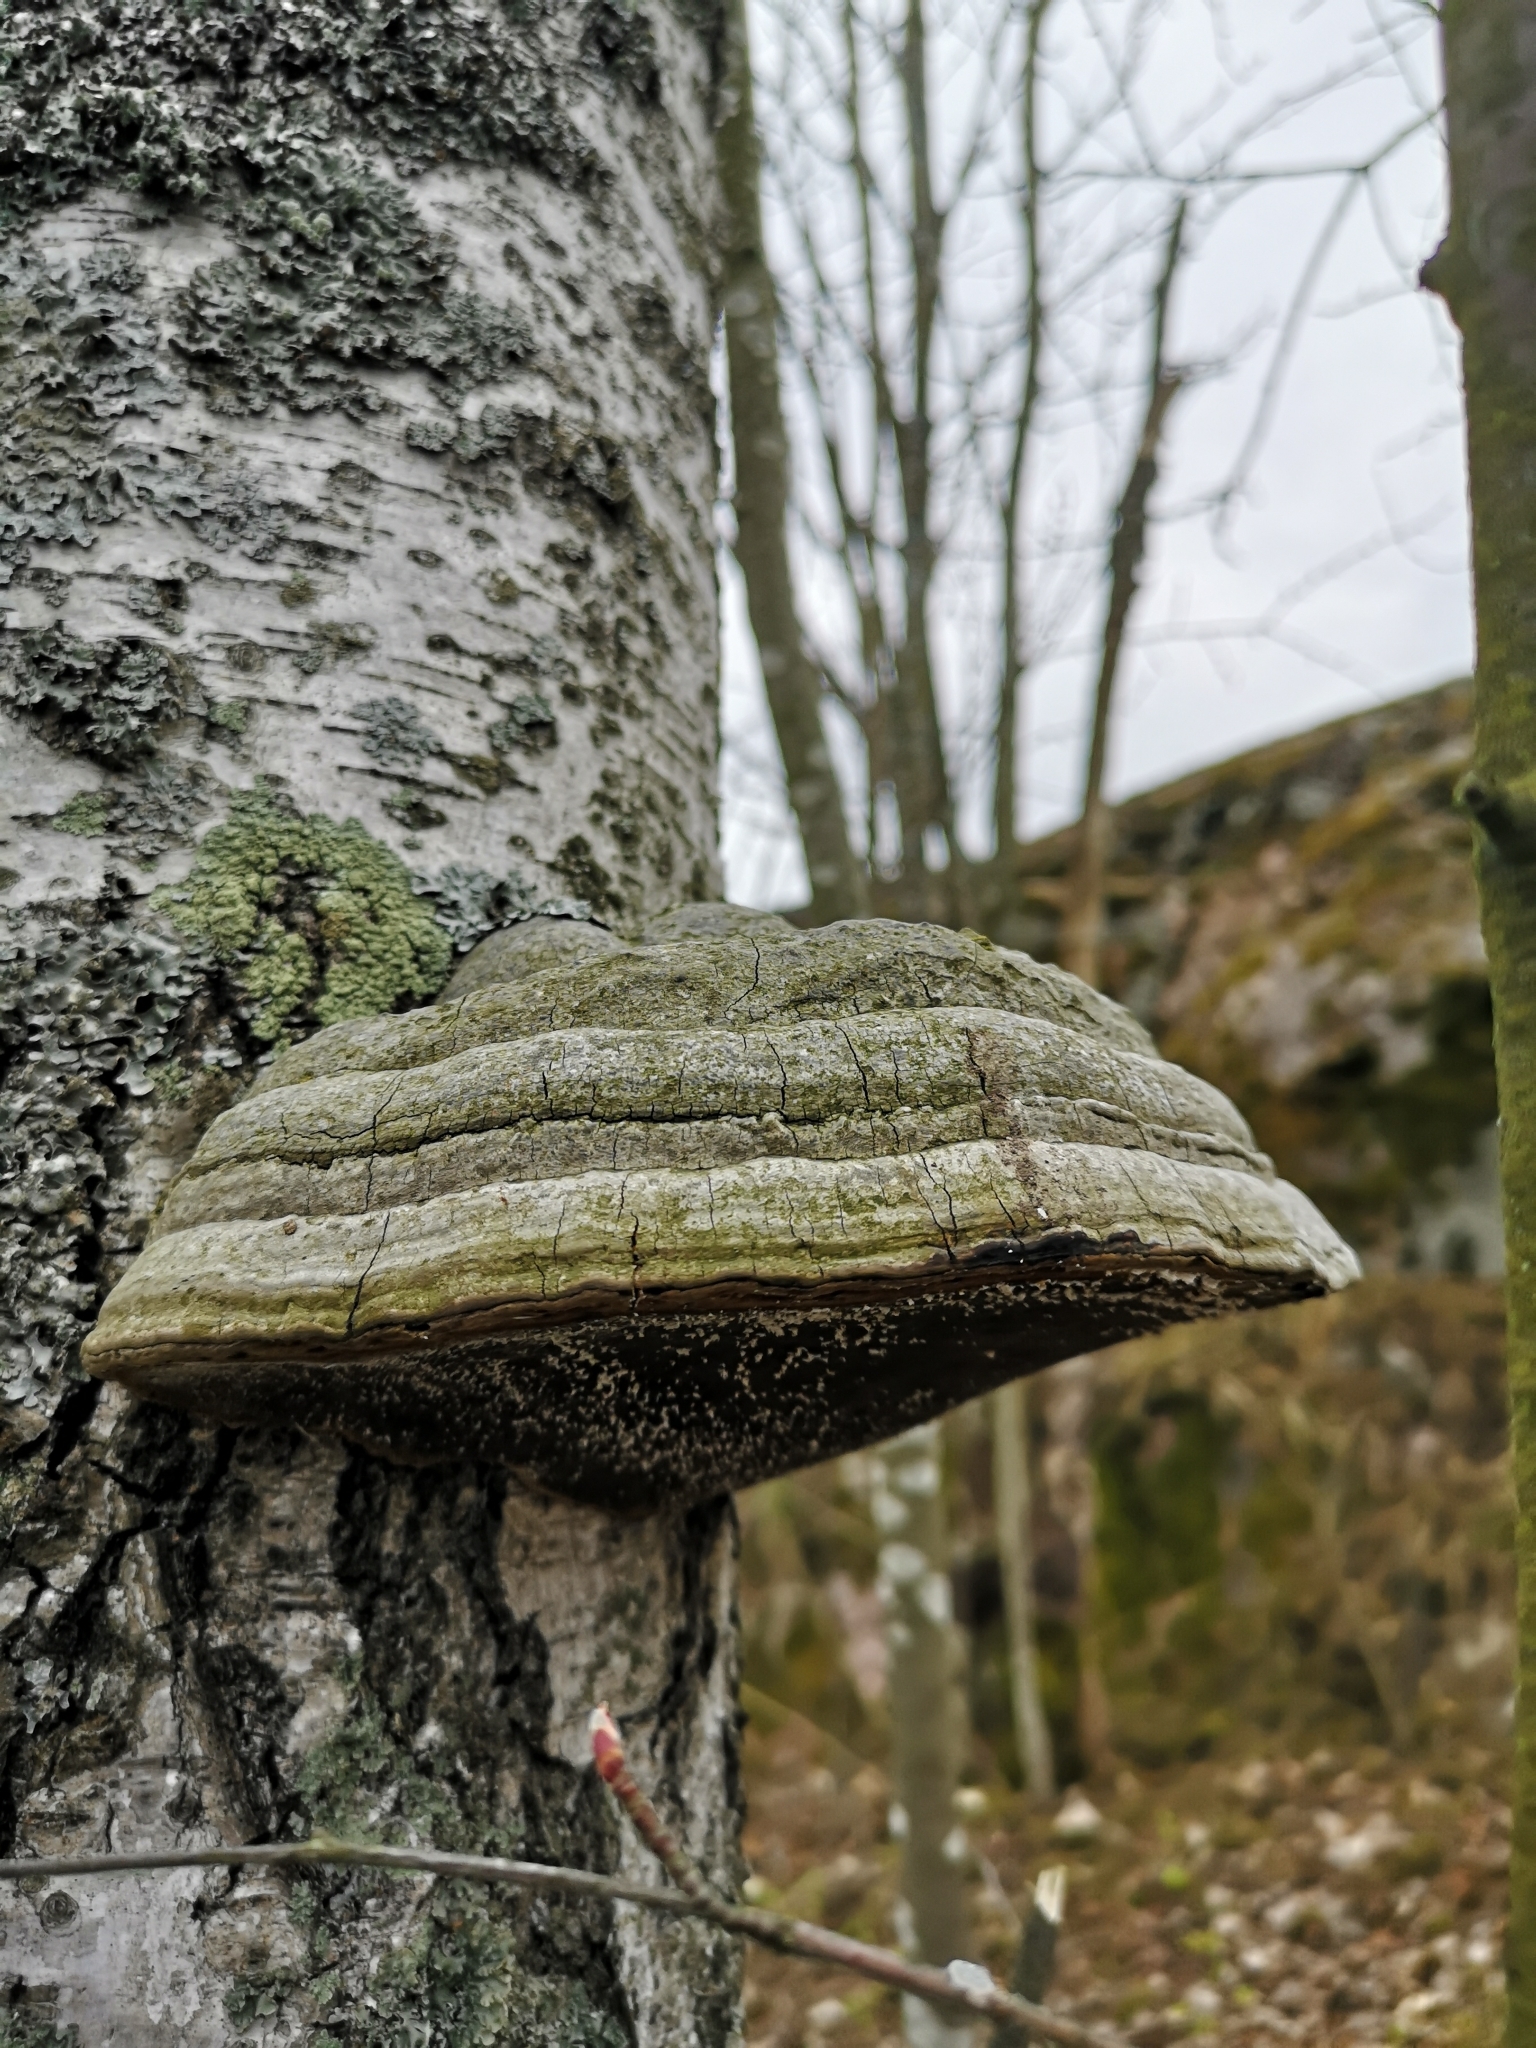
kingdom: Fungi
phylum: Basidiomycota
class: Agaricomycetes
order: Polyporales
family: Polyporaceae
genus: Fomes
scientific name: Fomes fomentarius
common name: Hoof fungus
